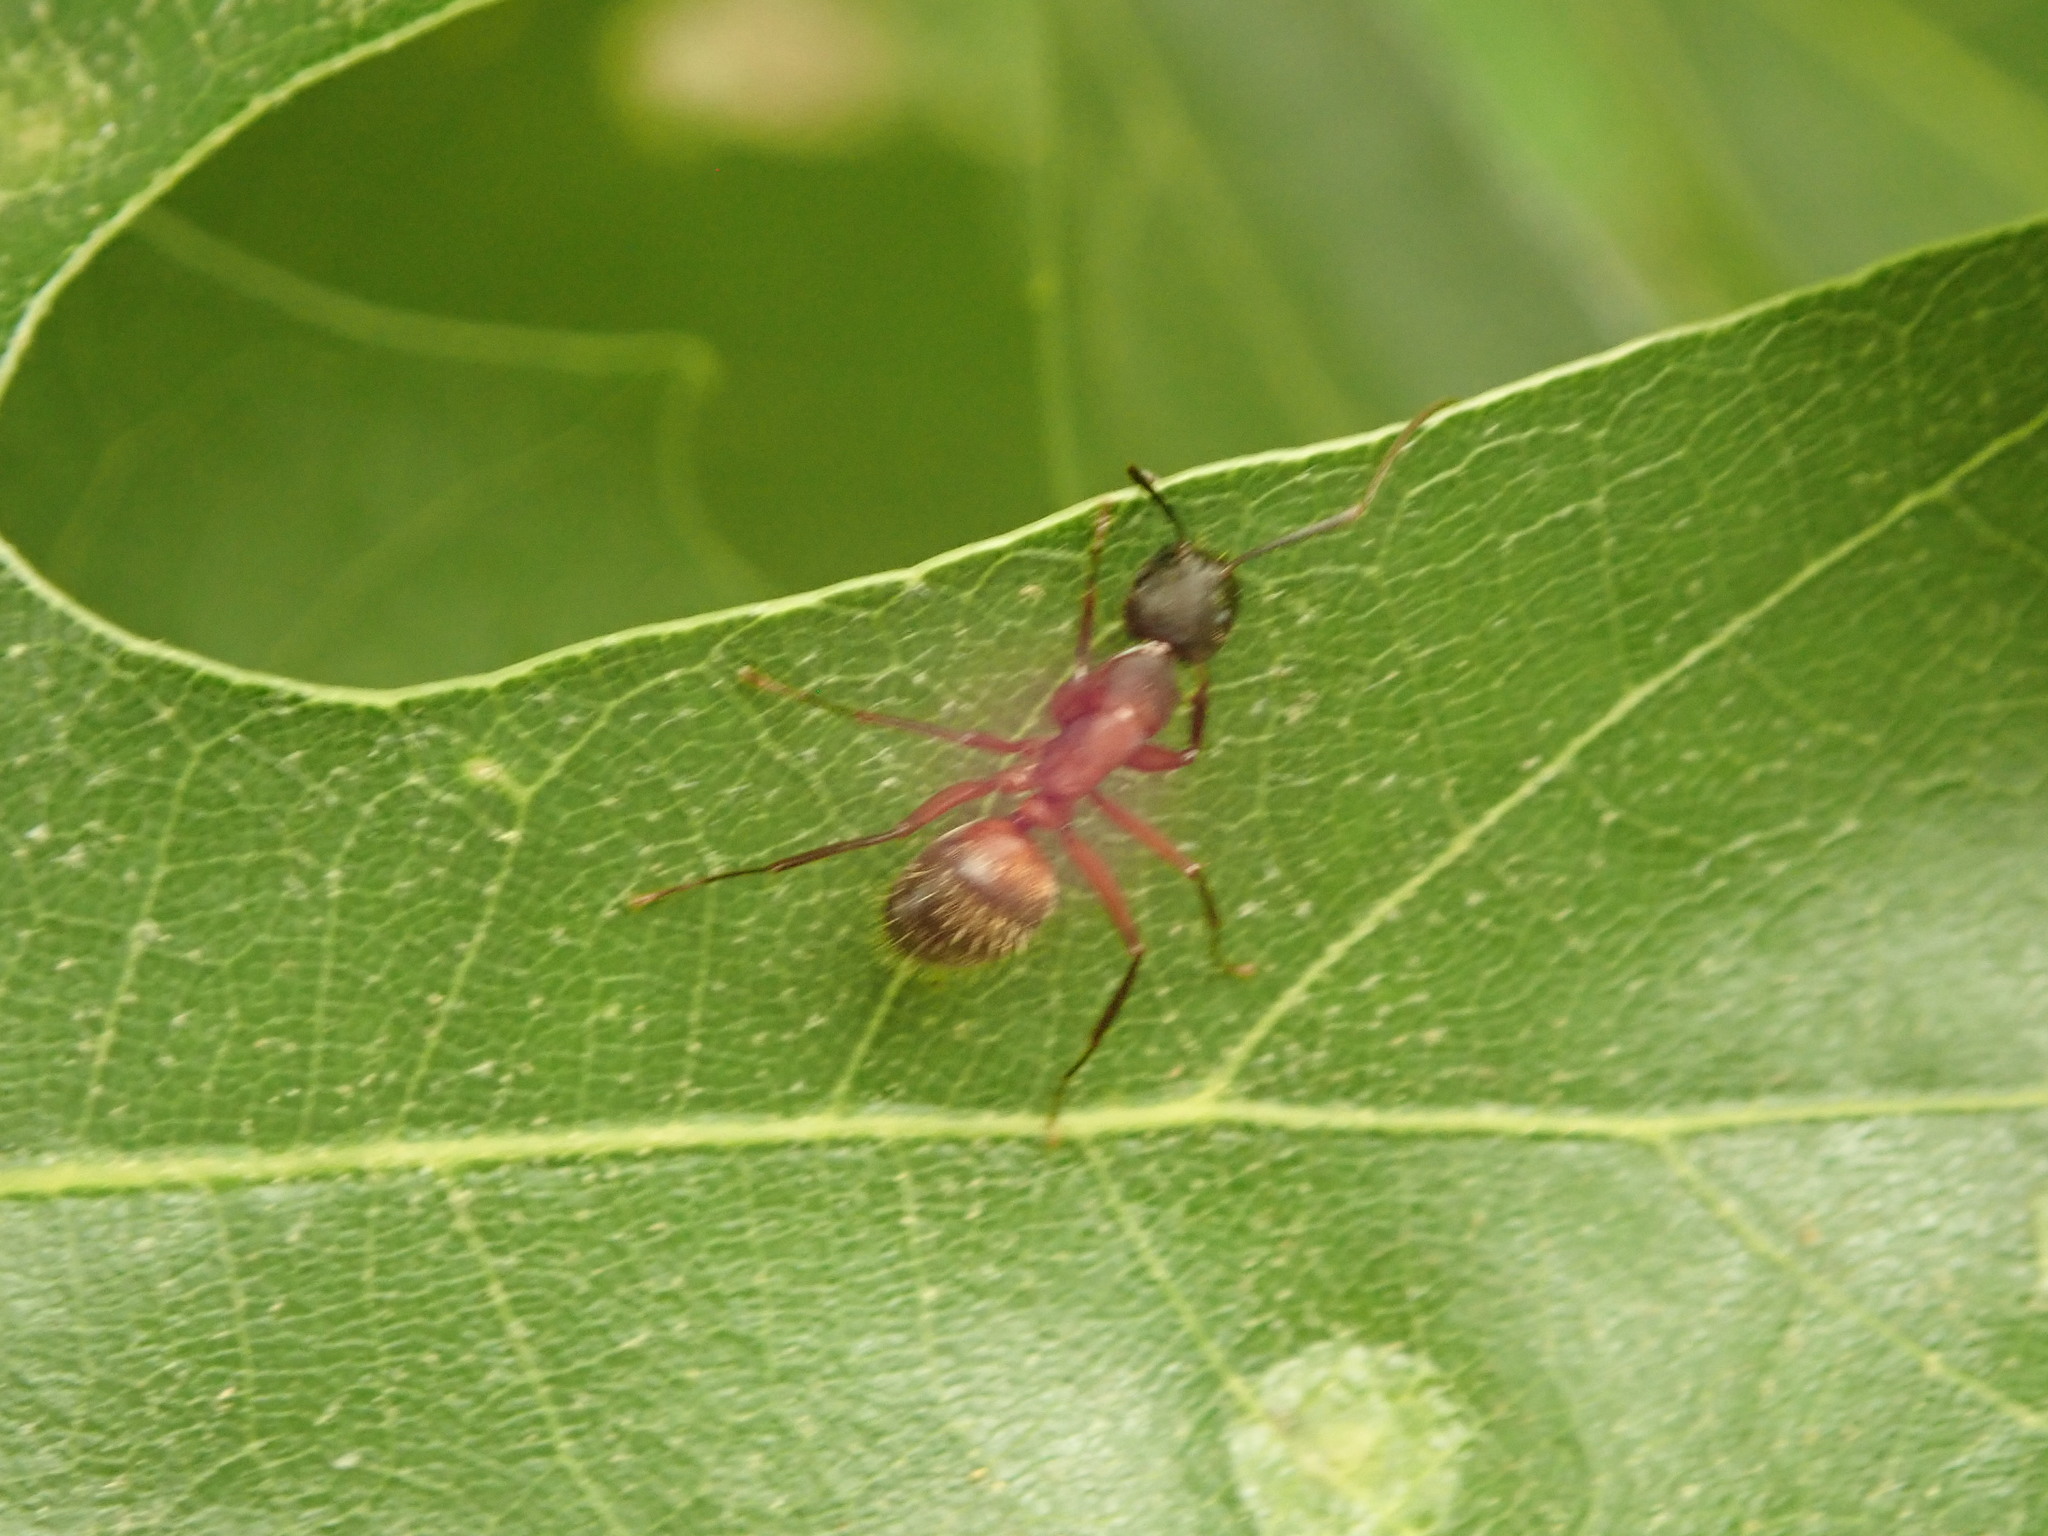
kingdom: Animalia
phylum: Arthropoda
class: Insecta
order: Hymenoptera
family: Formicidae
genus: Camponotus
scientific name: Camponotus chromaiodes
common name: Red carpenter ant
